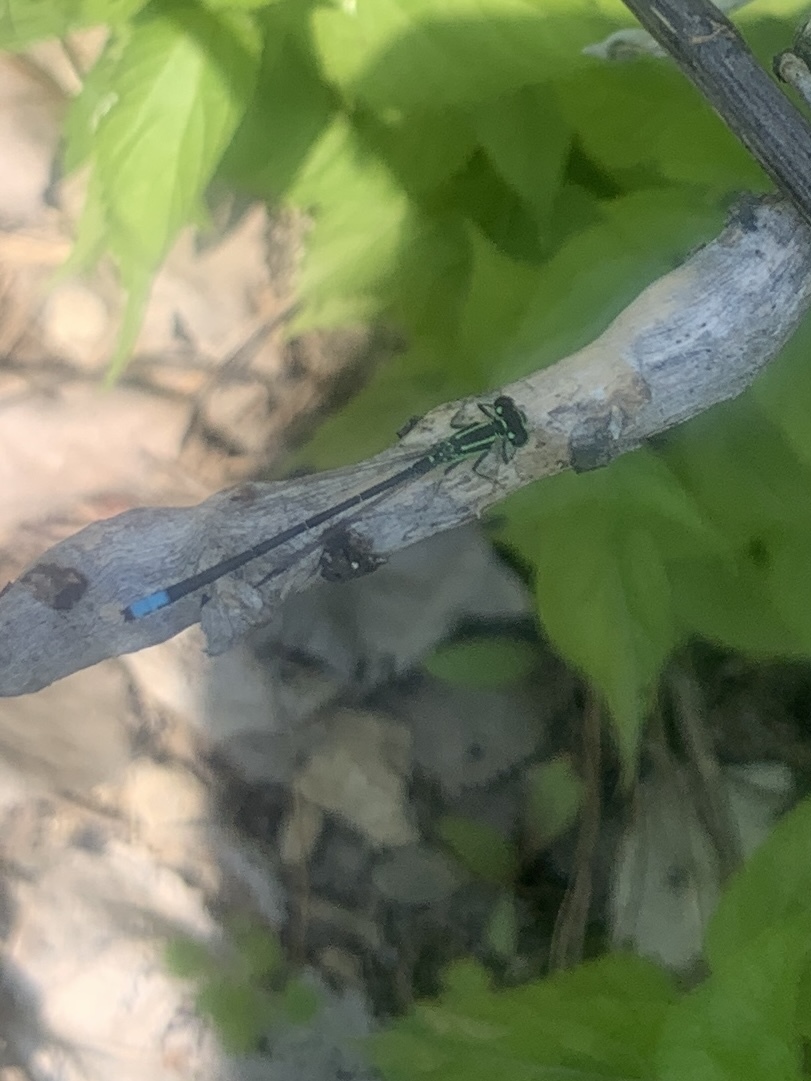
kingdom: Animalia
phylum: Arthropoda
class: Insecta
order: Odonata
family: Coenagrionidae
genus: Ischnura
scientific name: Ischnura verticalis
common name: Eastern forktail
